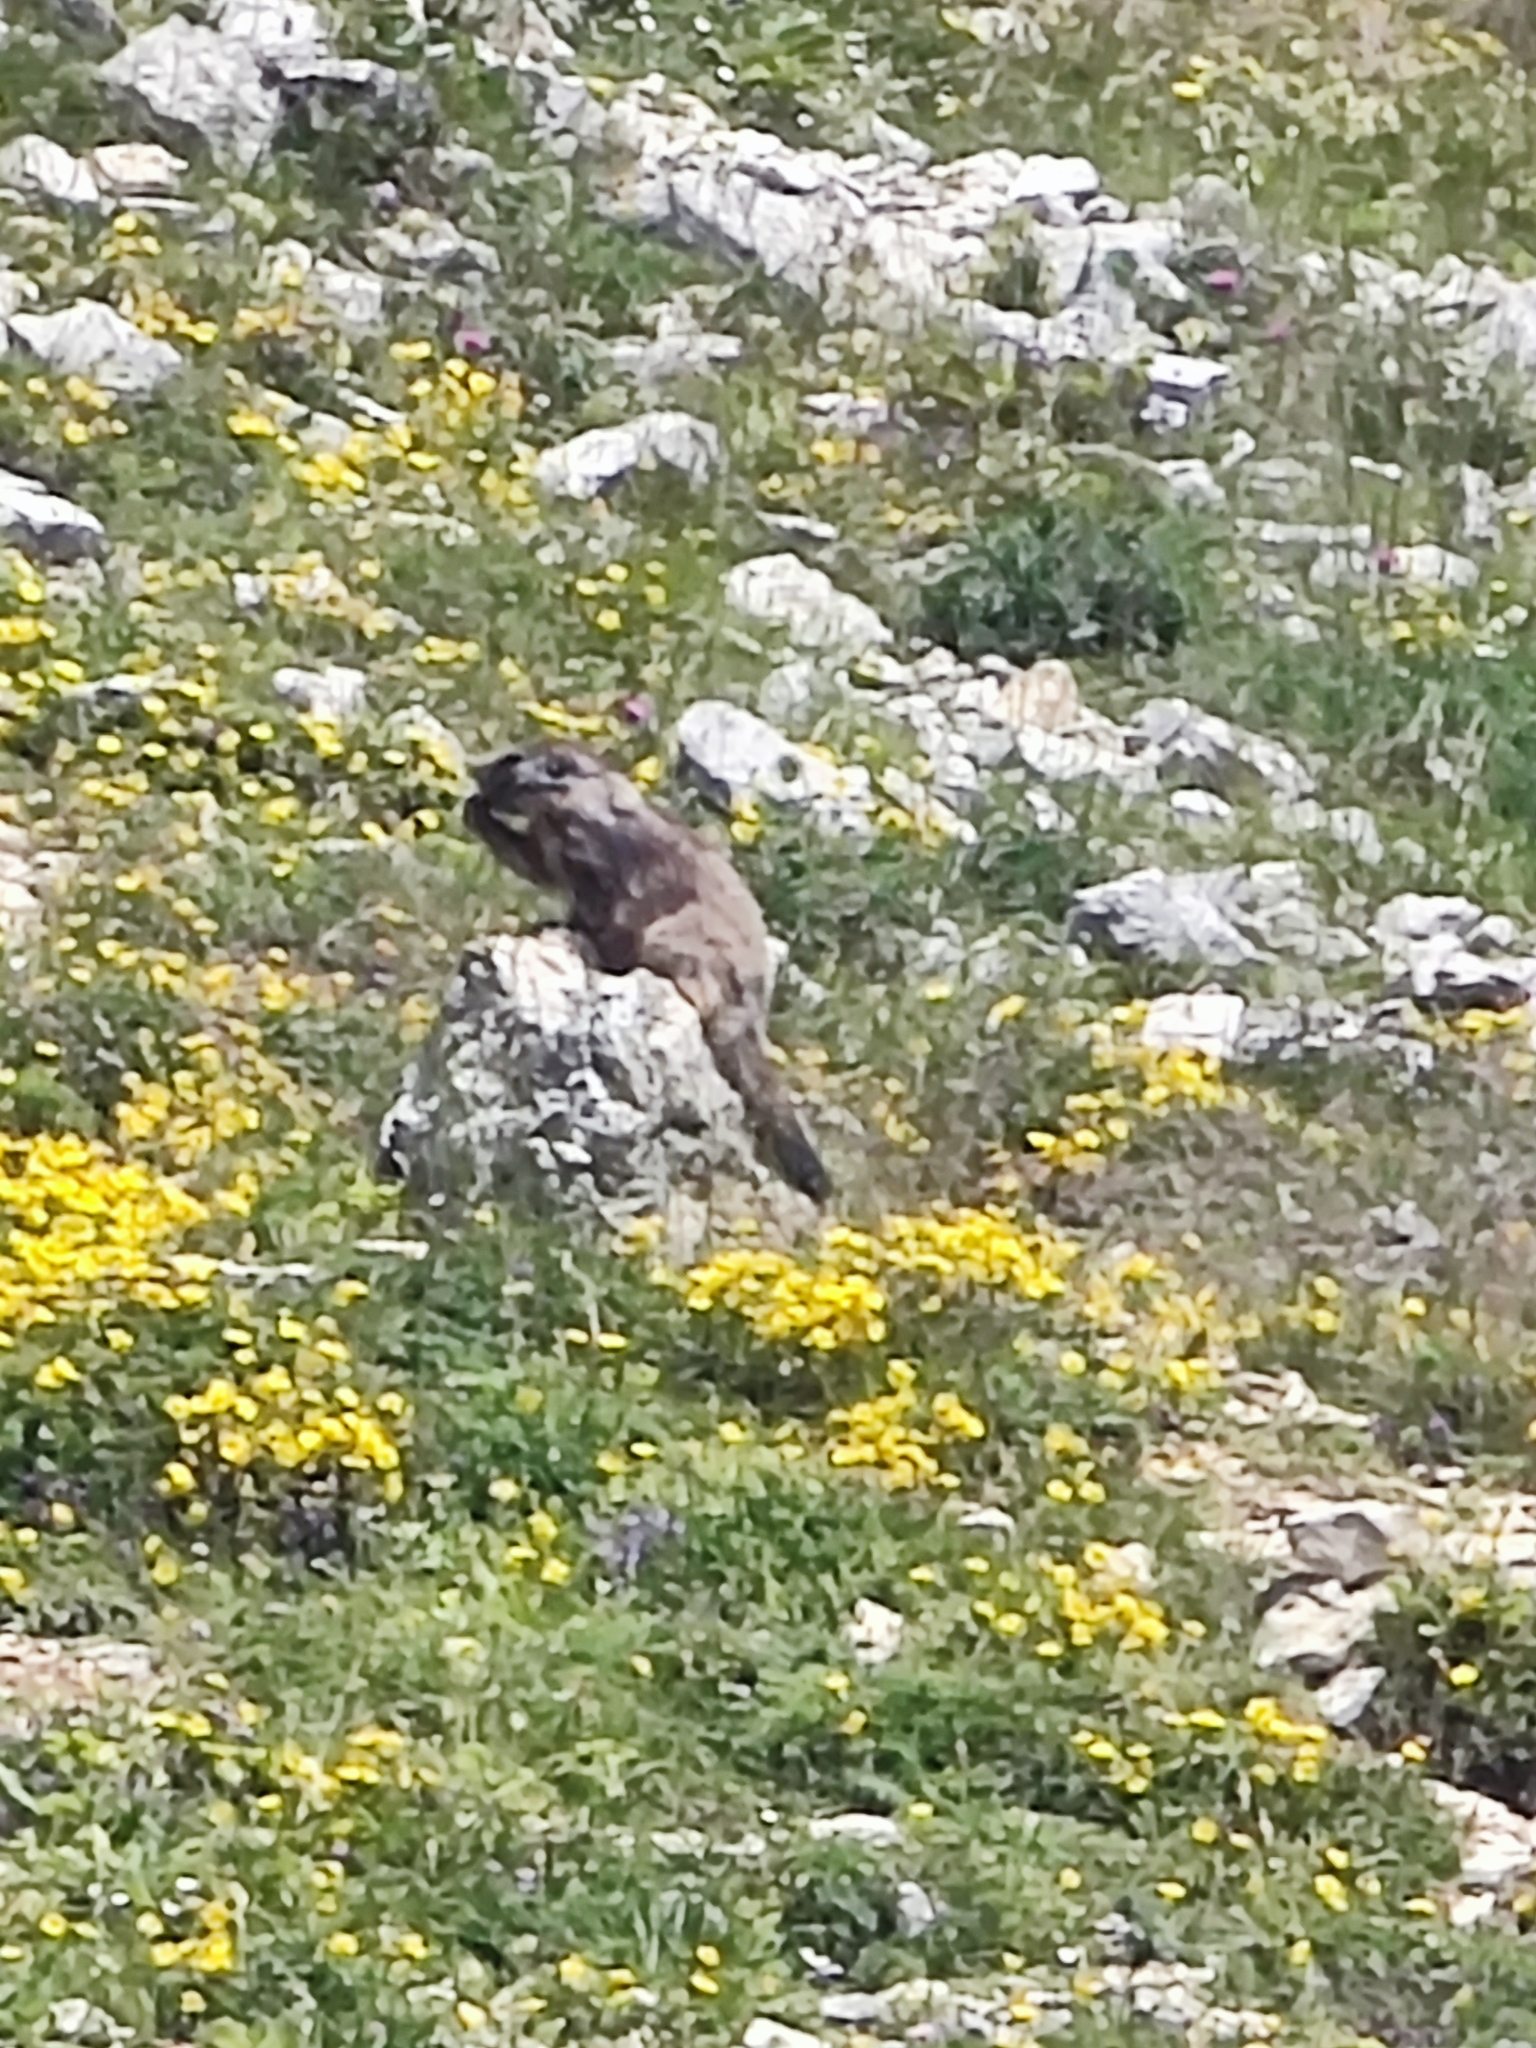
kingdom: Animalia
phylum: Chordata
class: Mammalia
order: Rodentia
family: Sciuridae
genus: Marmota
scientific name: Marmota marmota
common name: Alpine marmot
